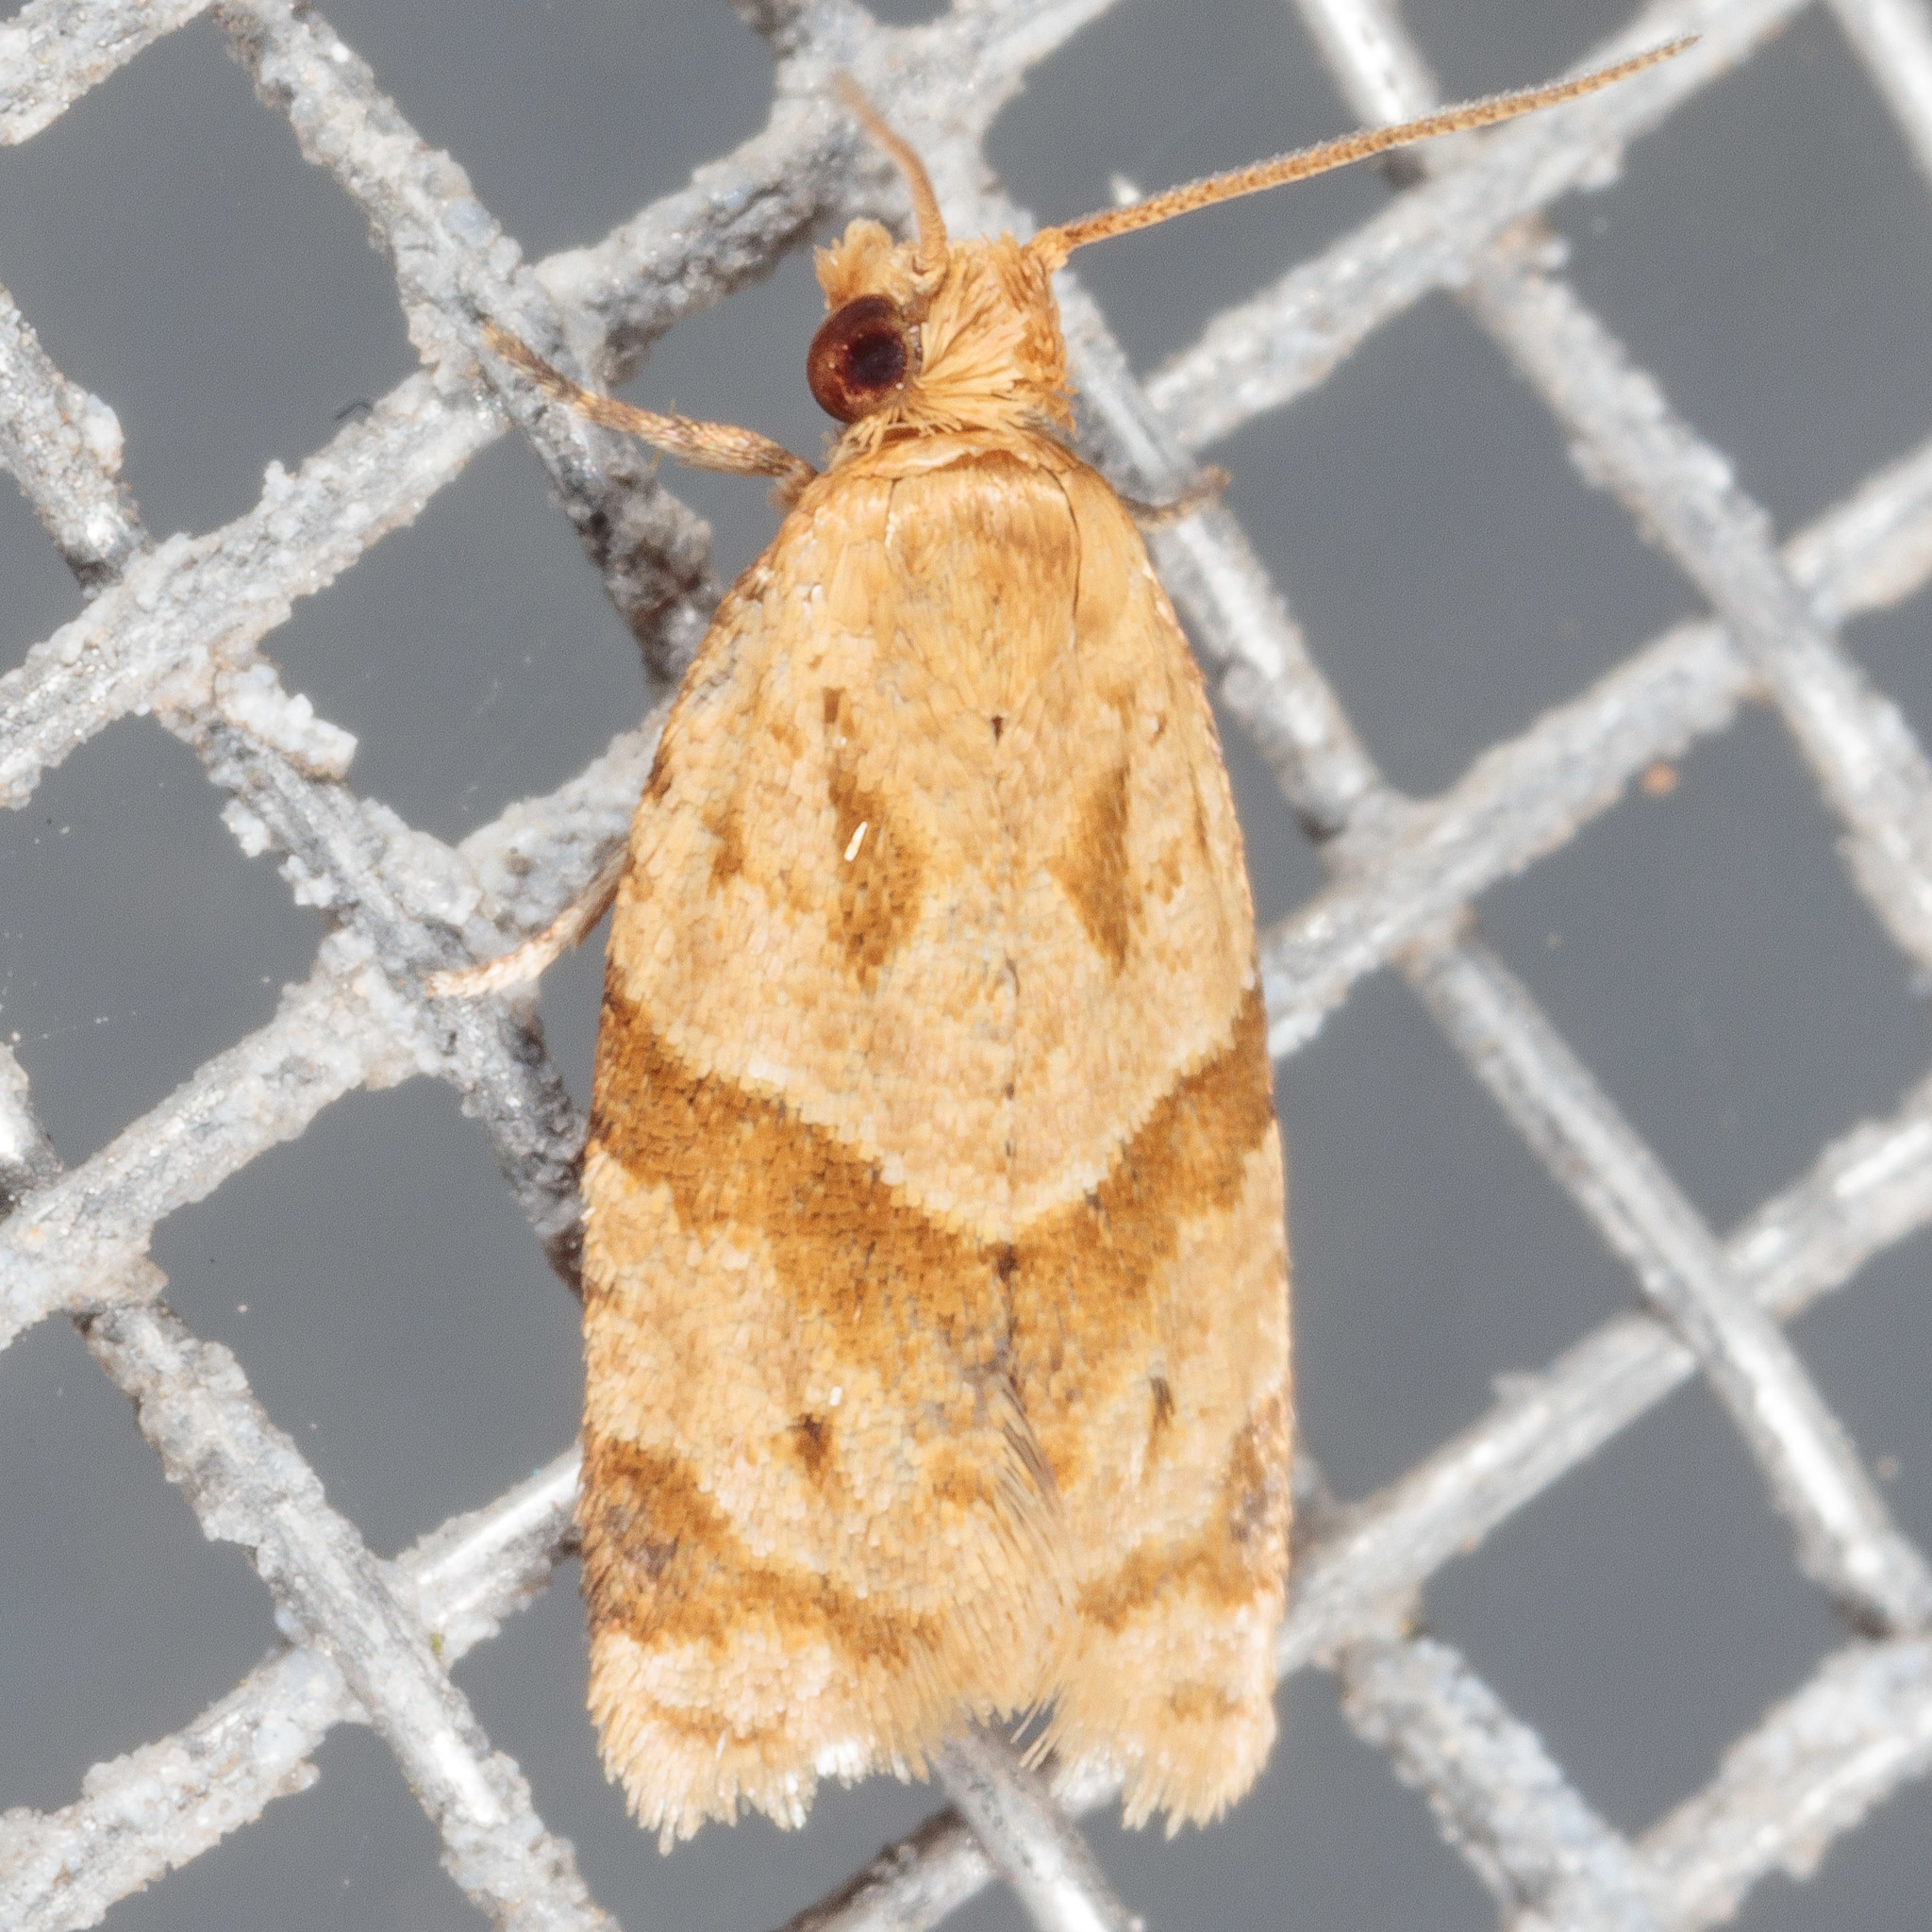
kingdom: Animalia
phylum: Arthropoda
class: Insecta
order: Lepidoptera
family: Tortricidae
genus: Clepsis
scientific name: Clepsis peritana
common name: Garden tortrix
